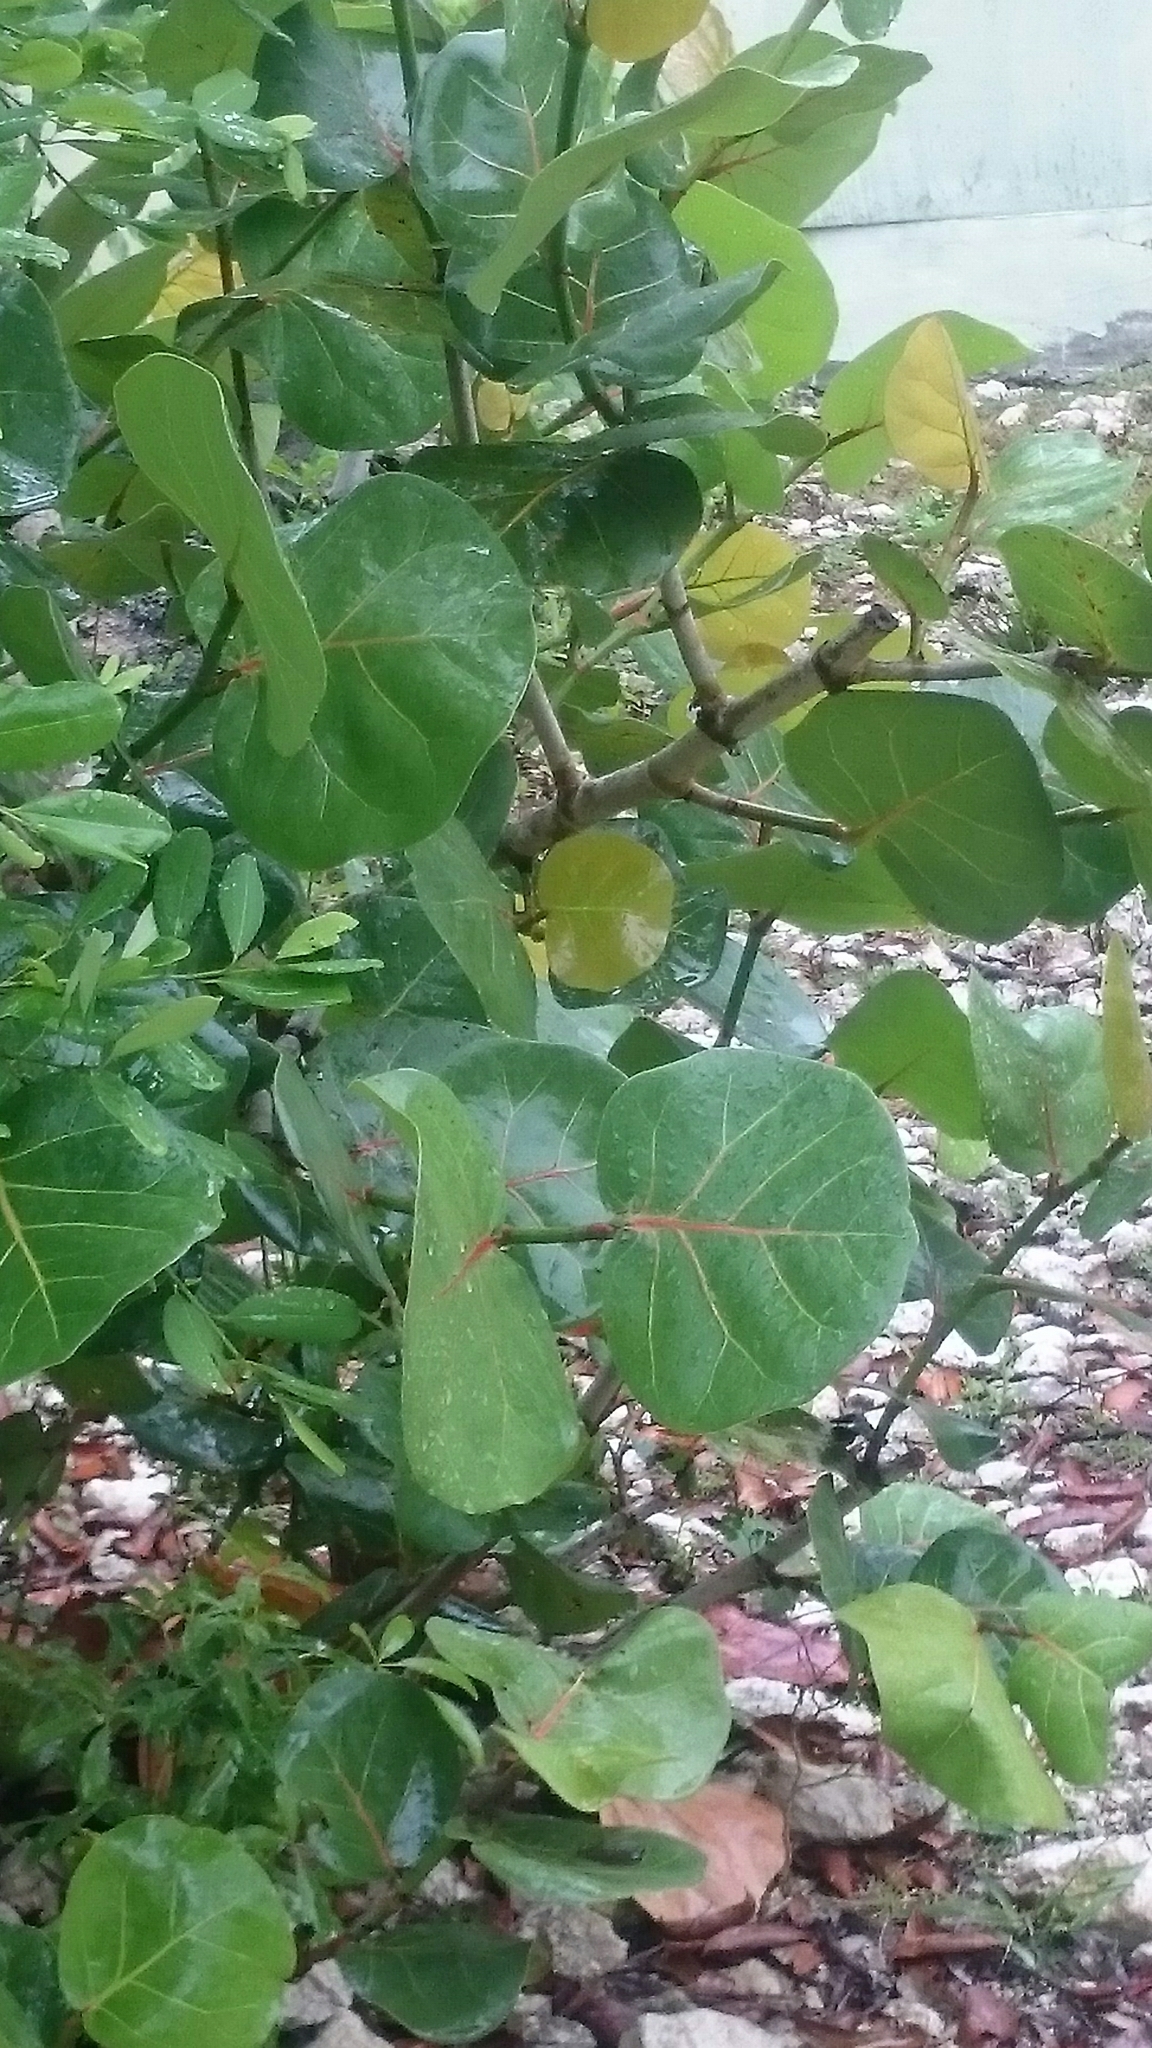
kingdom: Plantae
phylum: Tracheophyta
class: Magnoliopsida
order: Caryophyllales
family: Polygonaceae
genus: Coccoloba
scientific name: Coccoloba uvifera
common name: Seagrape
